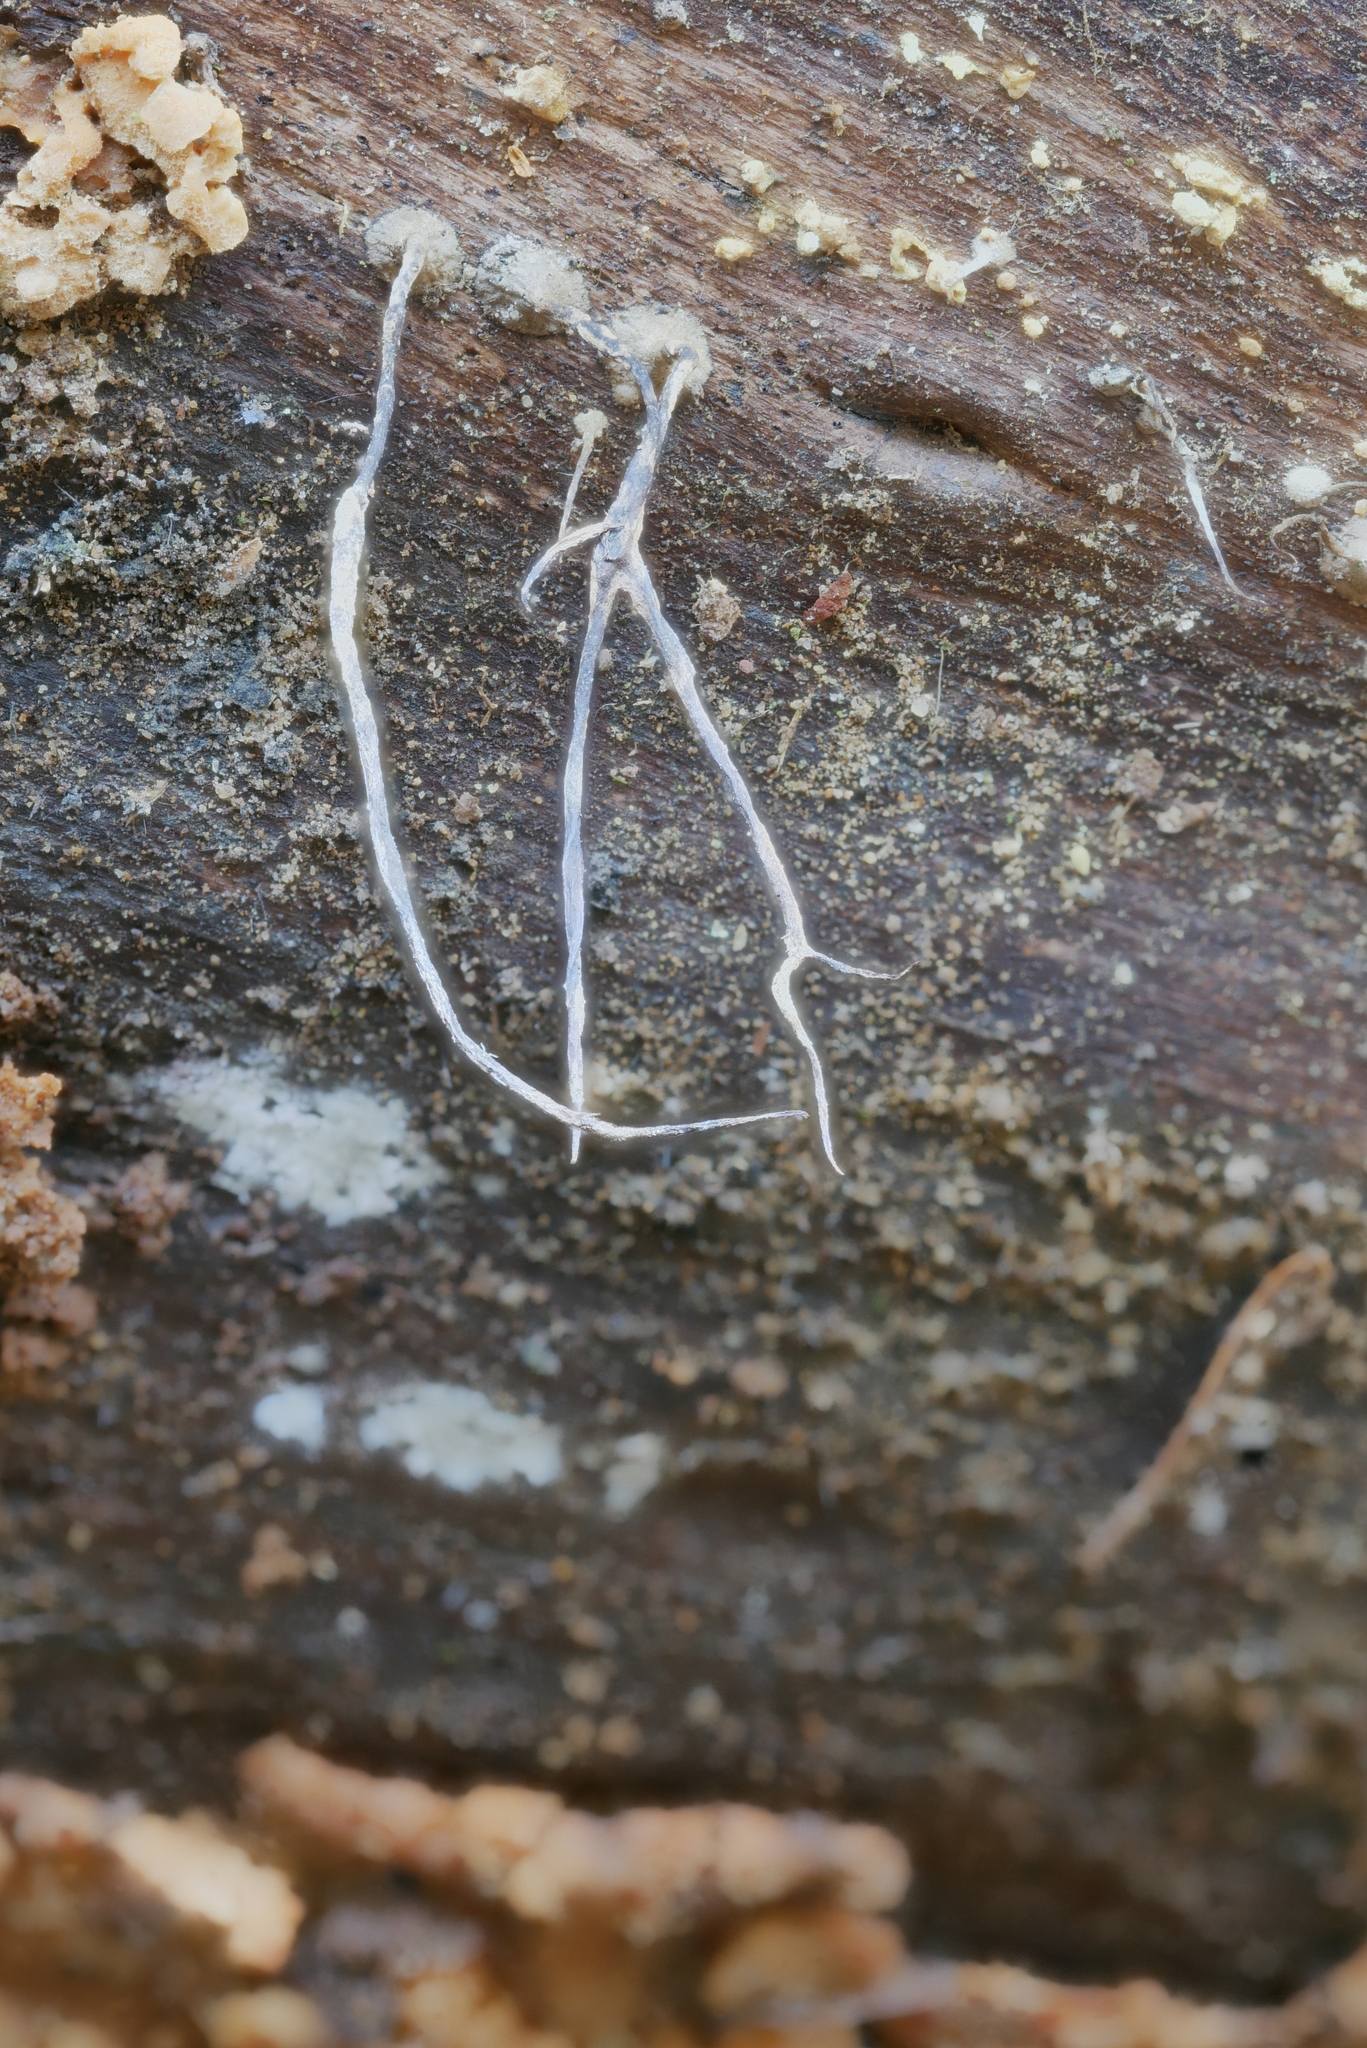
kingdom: Fungi
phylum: Ascomycota
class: Sordariomycetes
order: Xylariales
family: Xylariaceae
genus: Xylaria
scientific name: Xylaria filiformis
